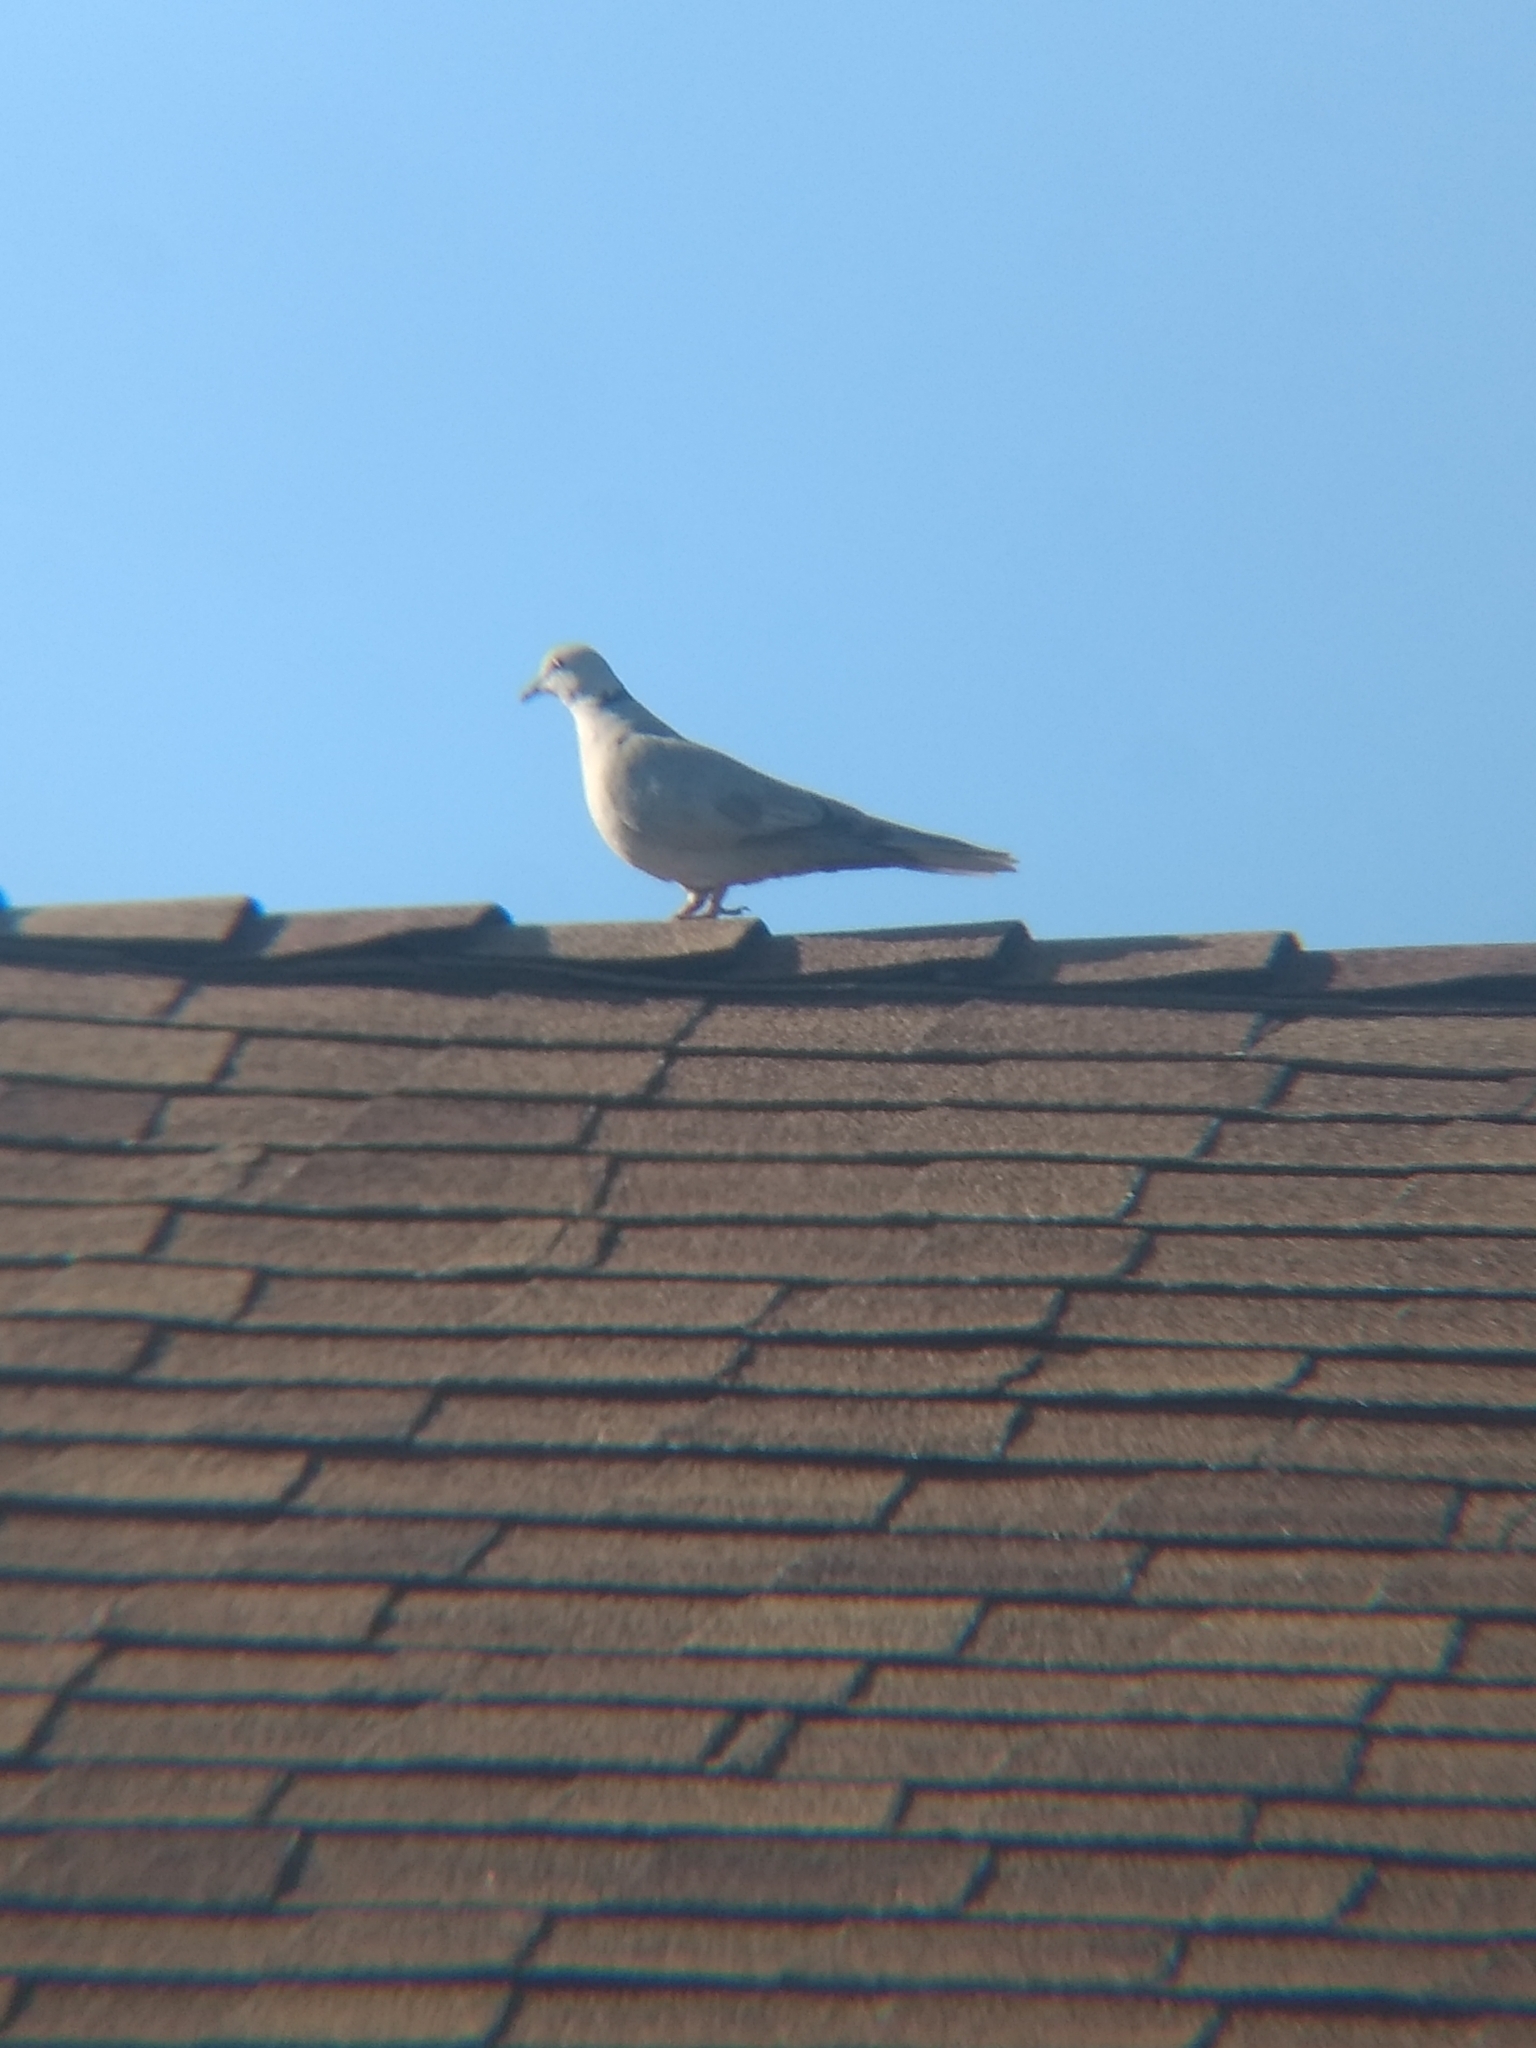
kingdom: Animalia
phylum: Chordata
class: Aves
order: Columbiformes
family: Columbidae
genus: Streptopelia
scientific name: Streptopelia decaocto
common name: Eurasian collared dove
